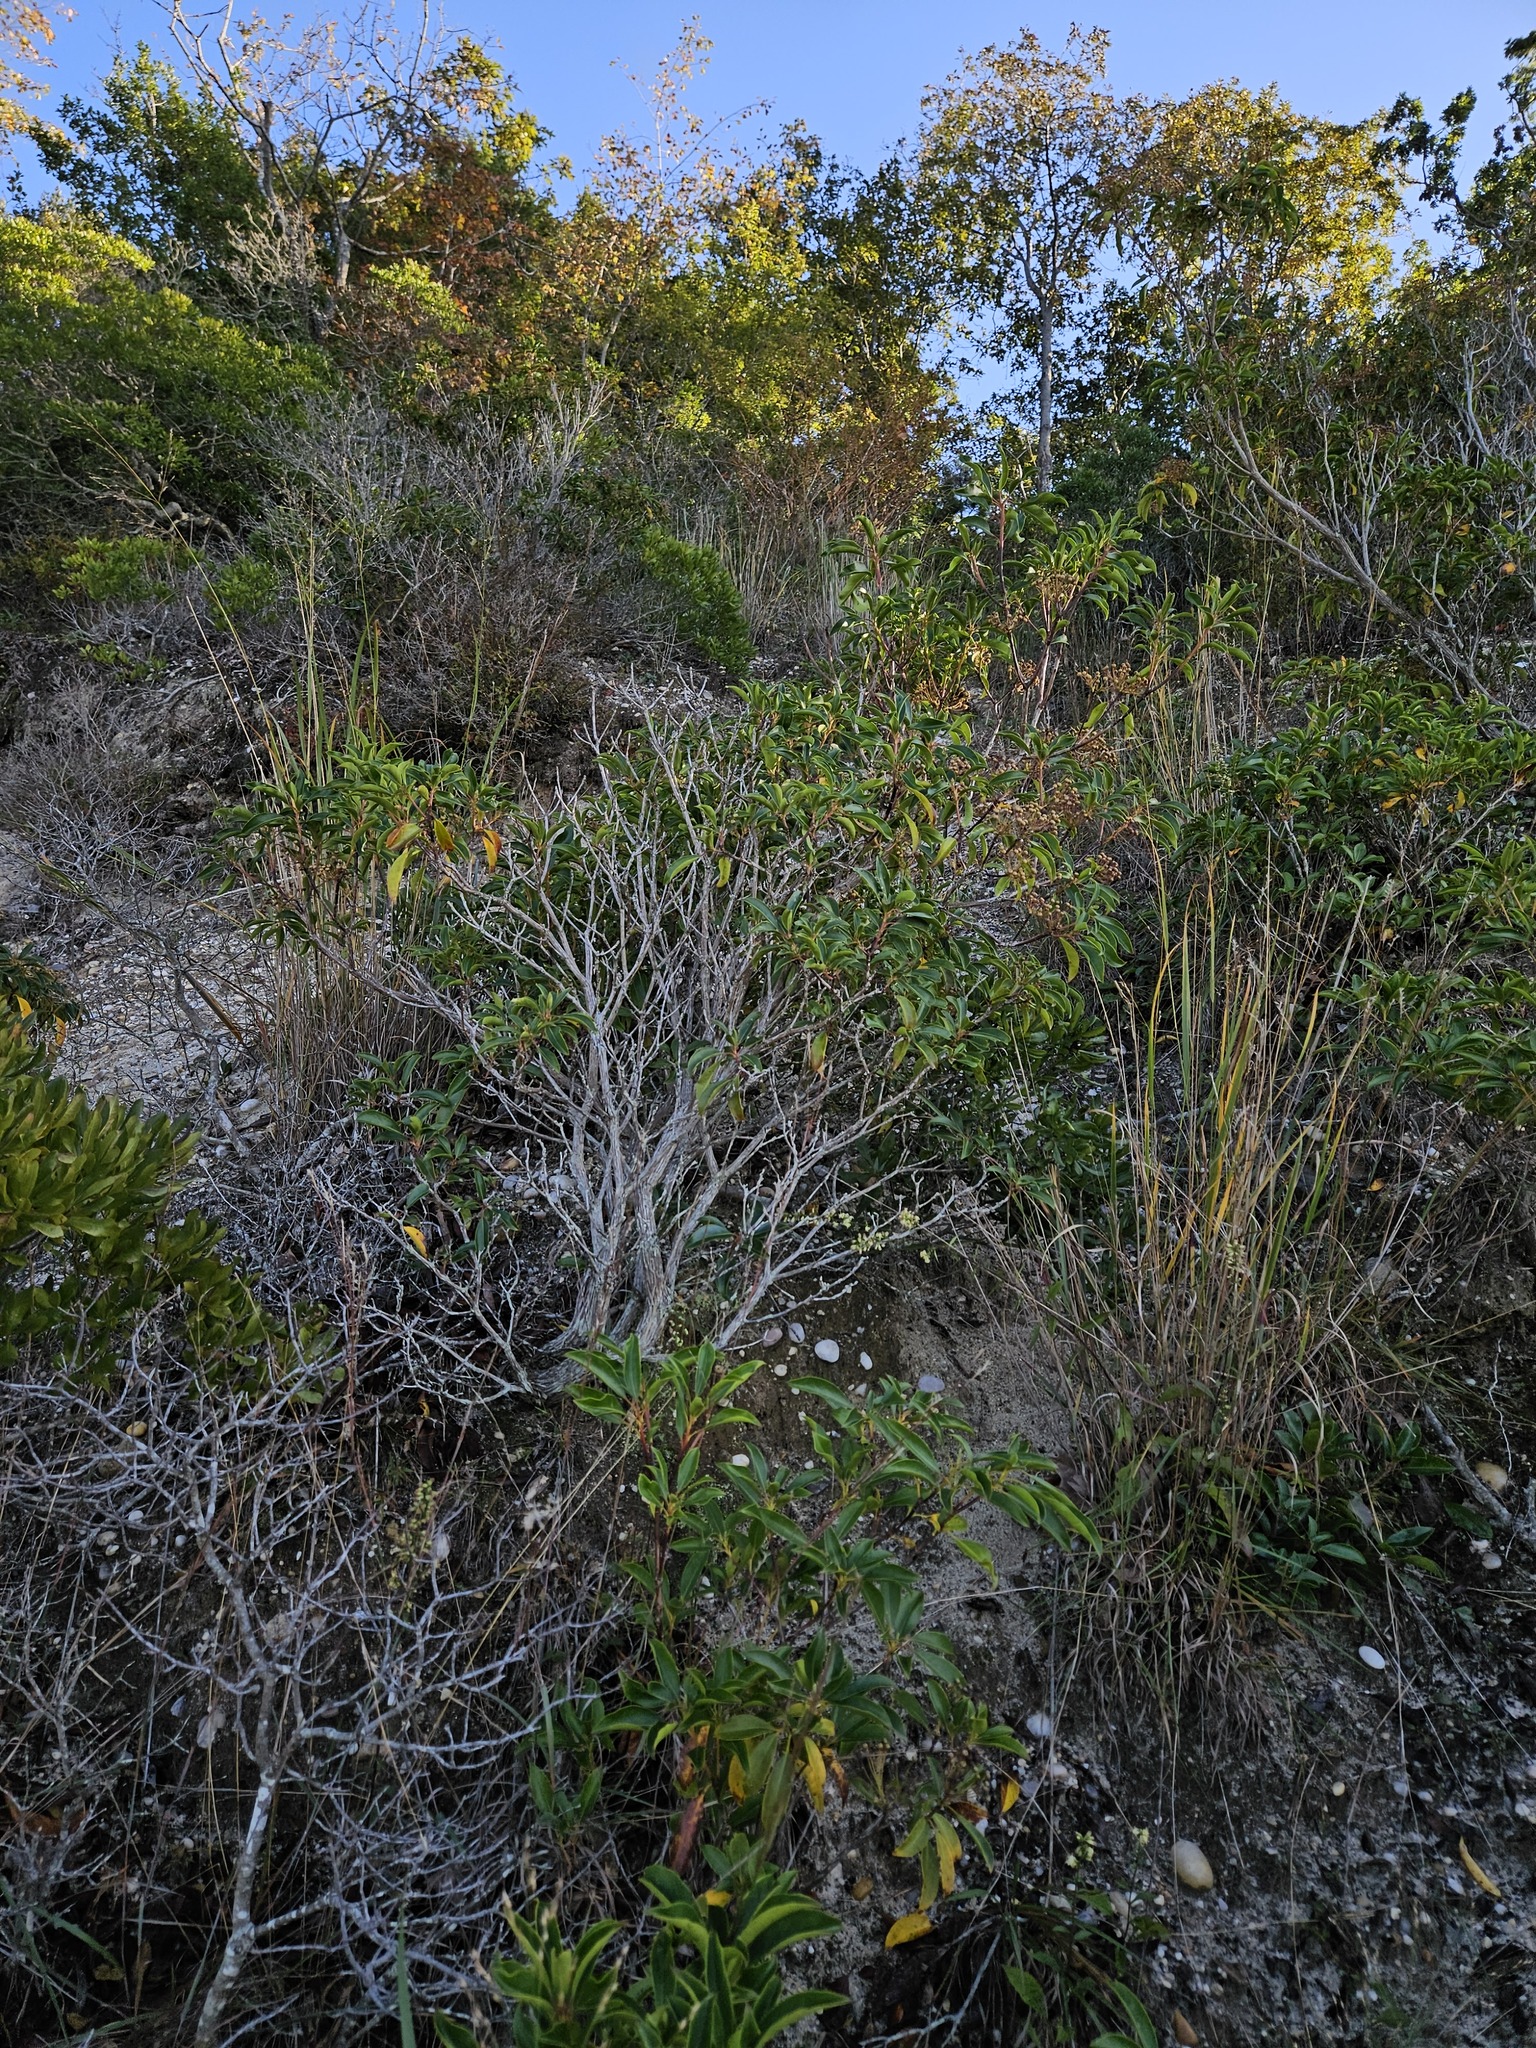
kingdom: Plantae
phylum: Tracheophyta
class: Magnoliopsida
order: Ericales
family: Ericaceae
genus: Kalmia
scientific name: Kalmia latifolia
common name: Mountain-laurel
